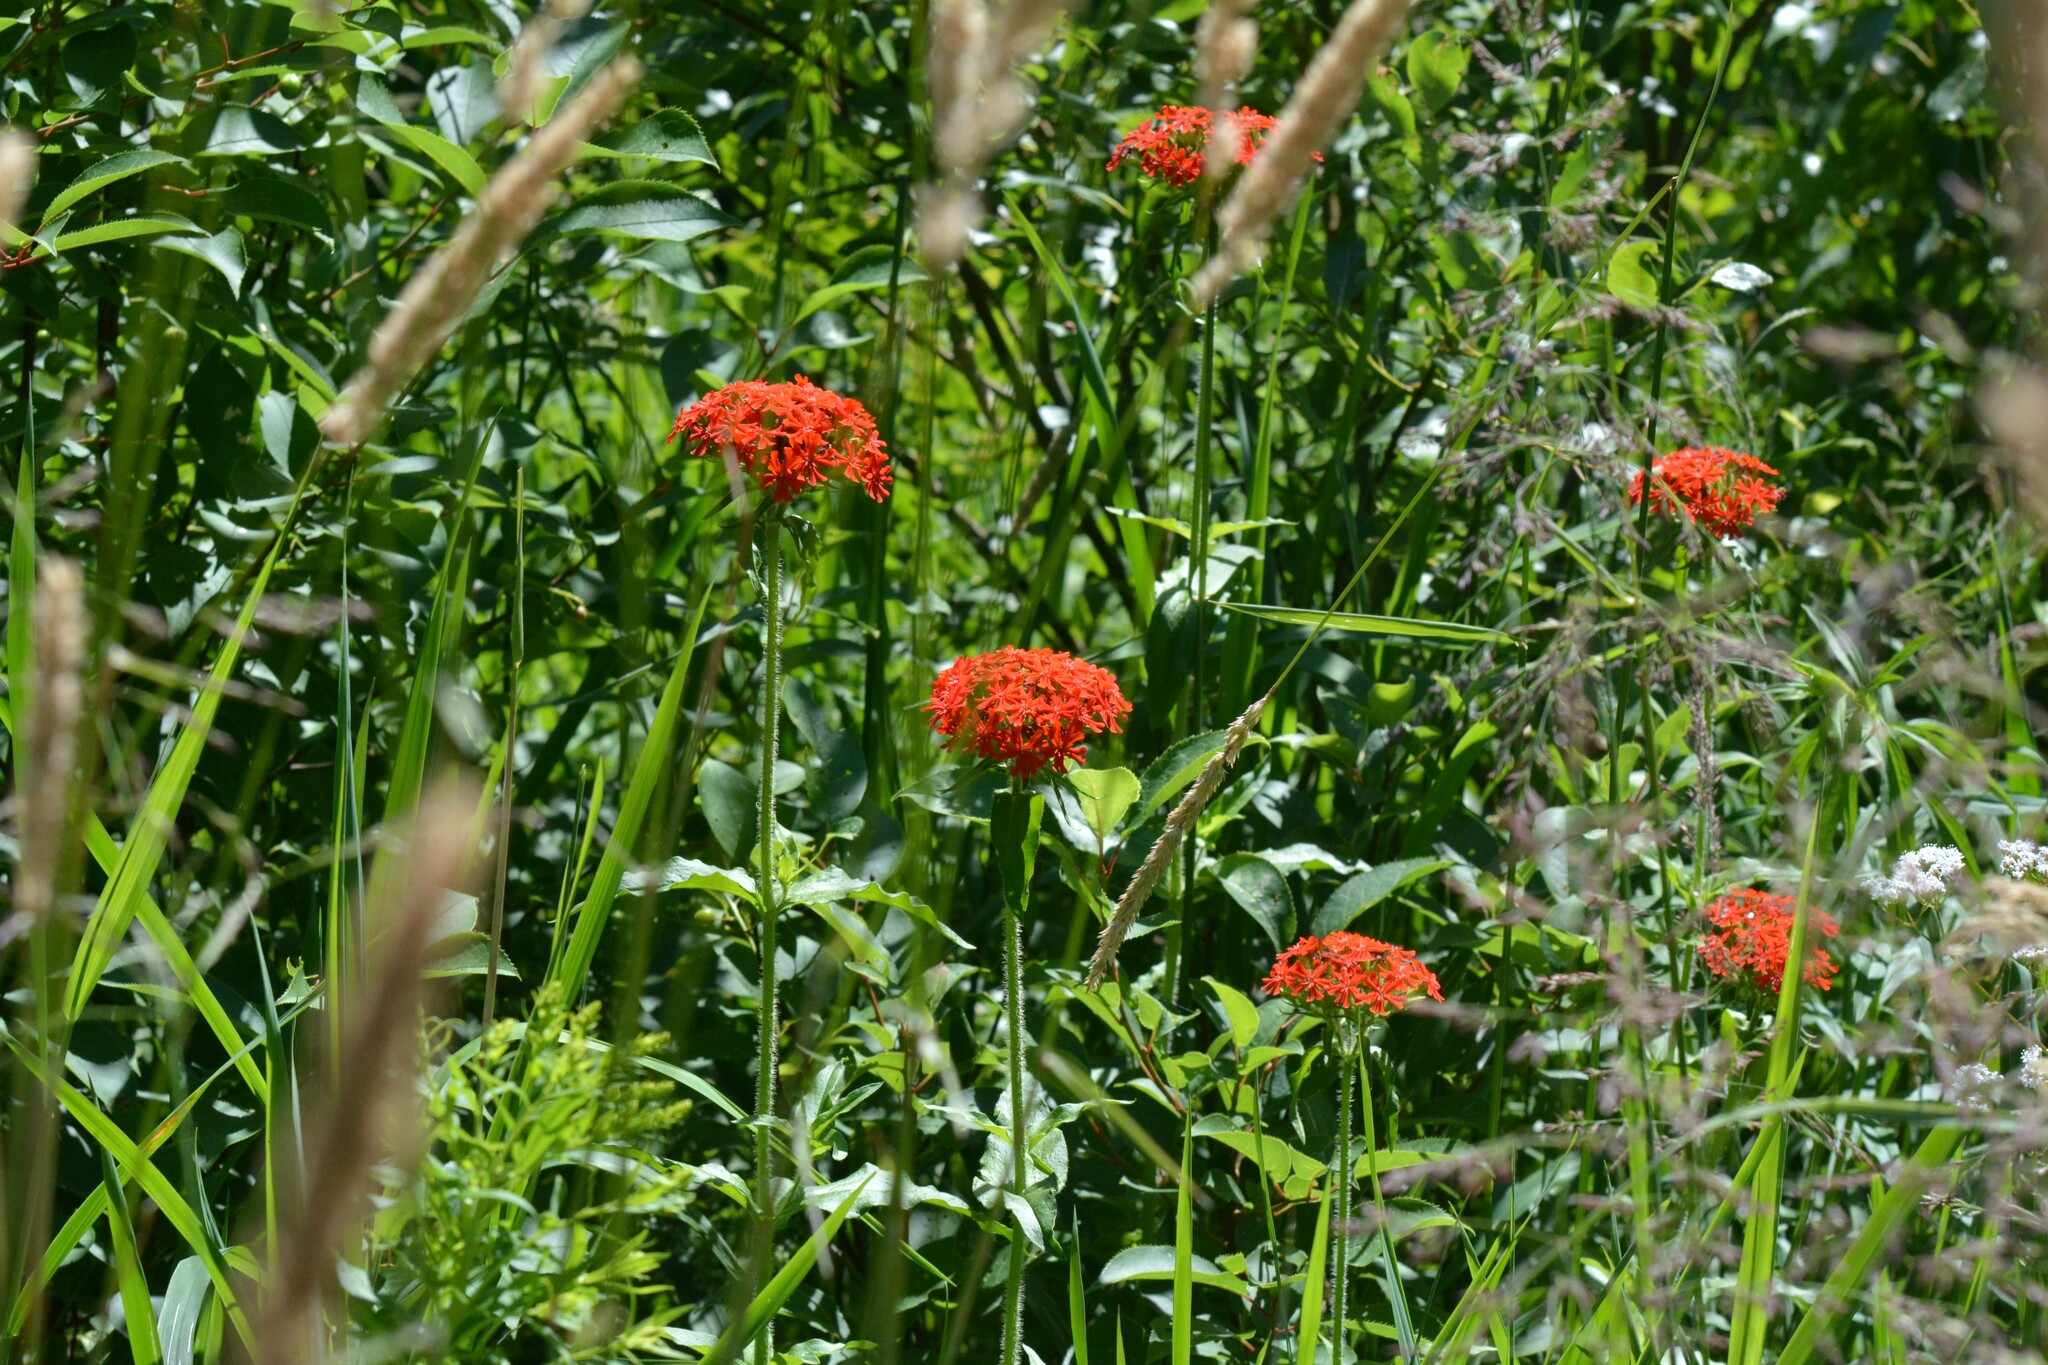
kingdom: Plantae
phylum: Tracheophyta
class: Magnoliopsida
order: Caryophyllales
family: Caryophyllaceae
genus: Silene
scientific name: Silene chalcedonica
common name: Maltese-cross
